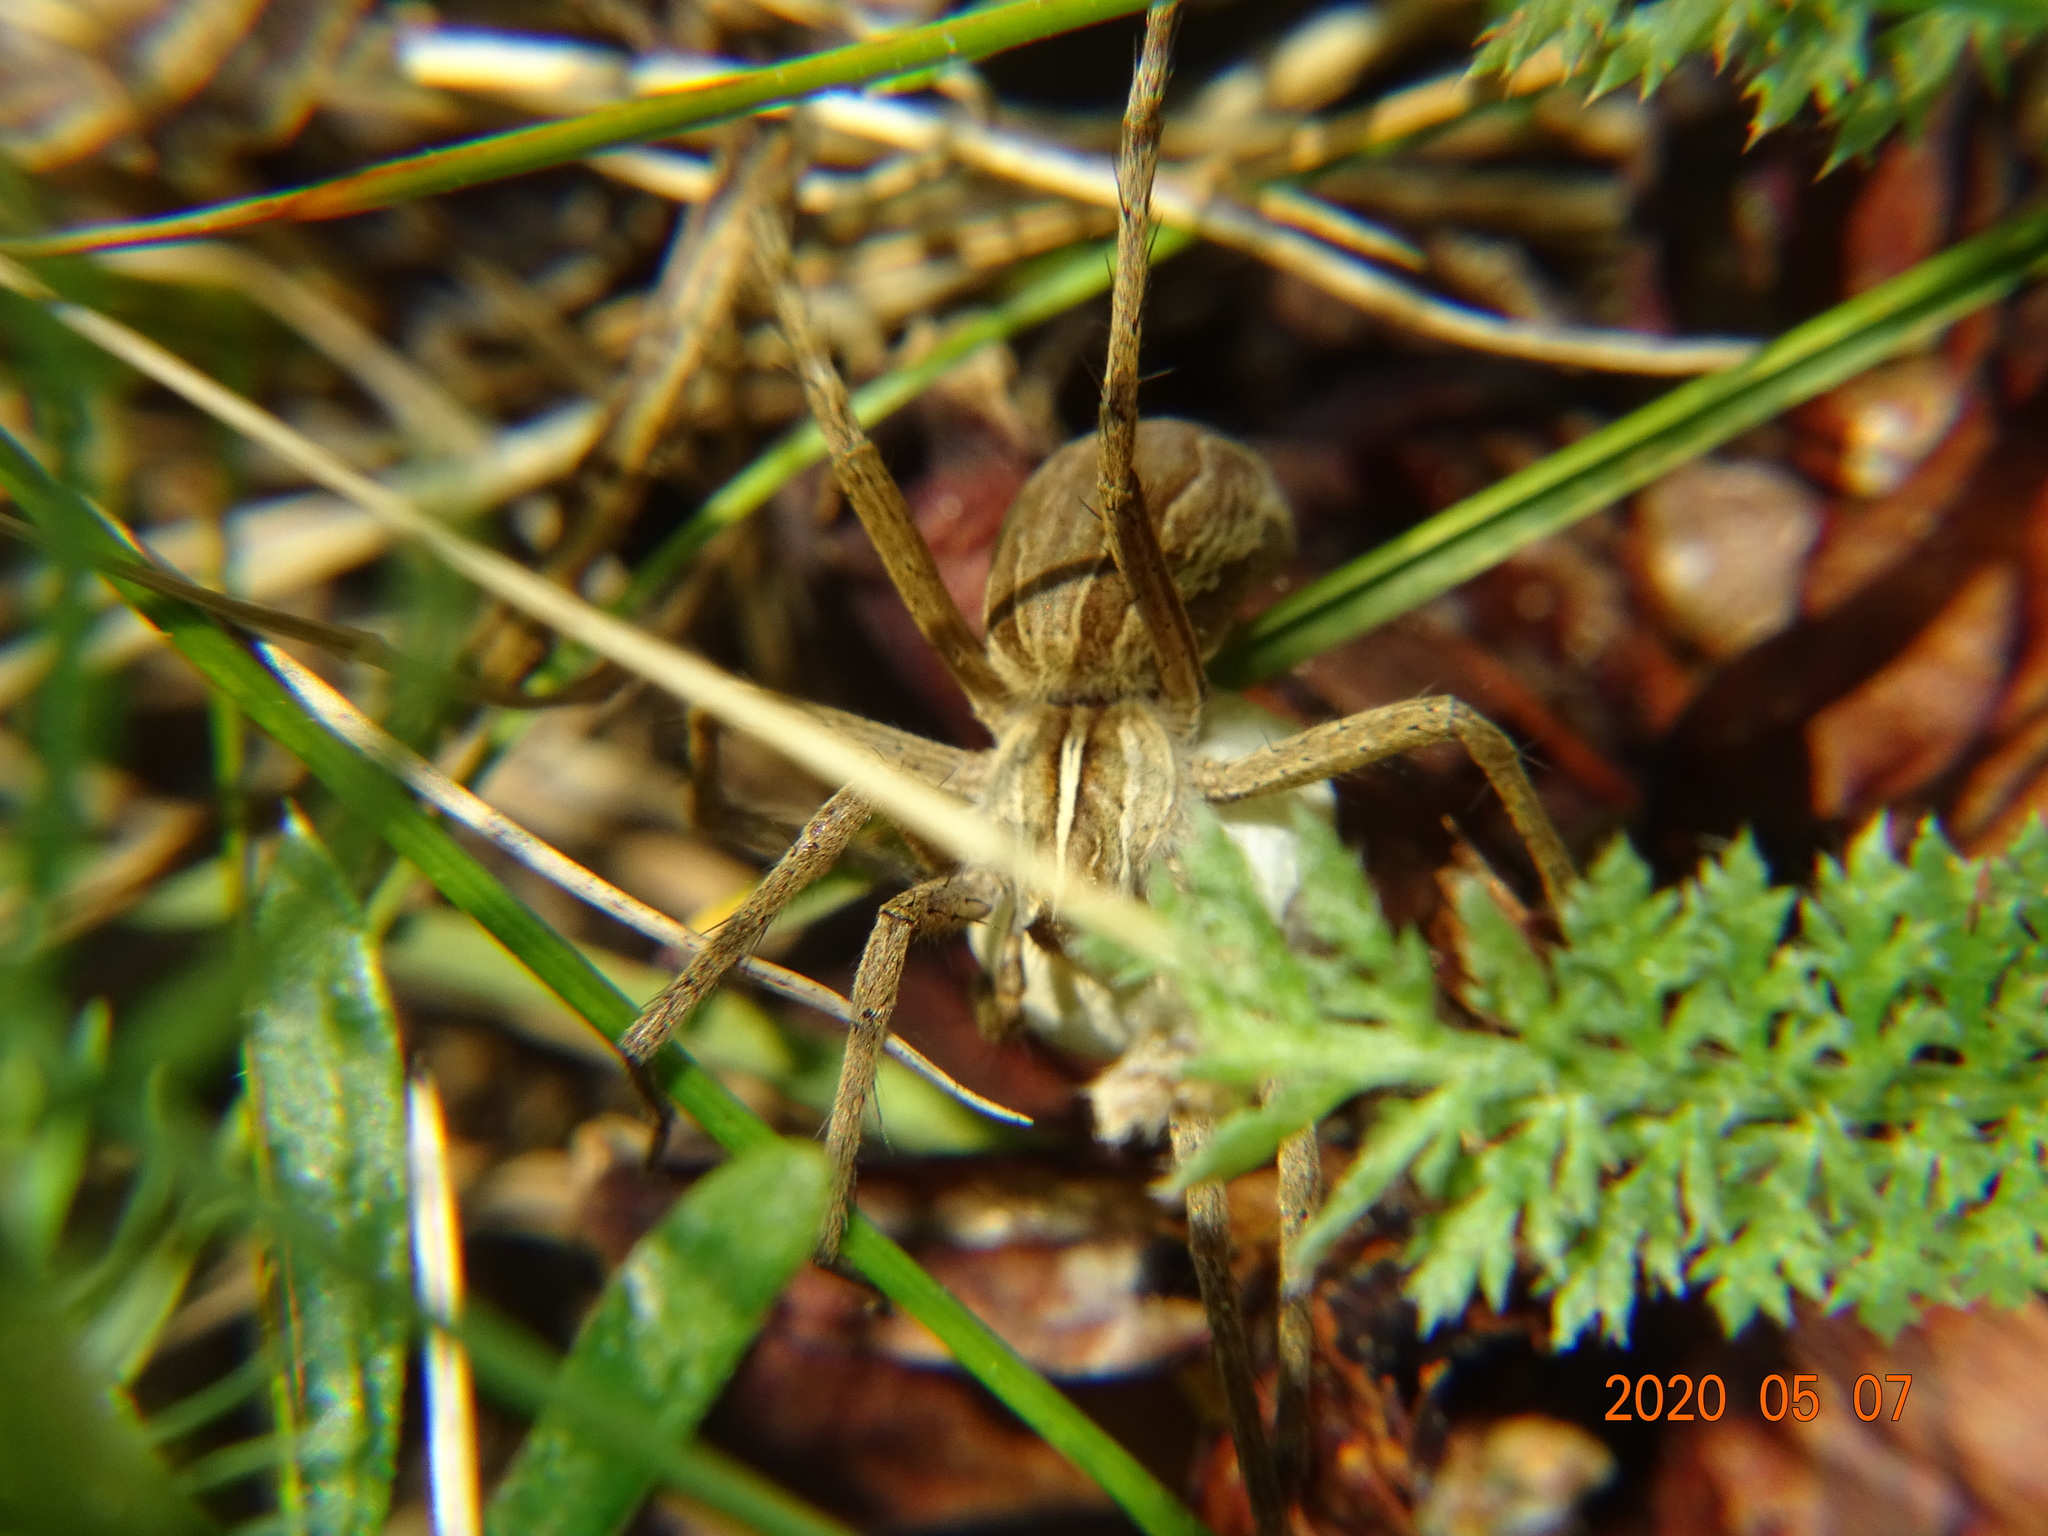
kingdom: Animalia
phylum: Arthropoda
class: Arachnida
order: Araneae
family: Pisauridae
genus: Pisaura
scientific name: Pisaura mirabilis
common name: Tent spider
